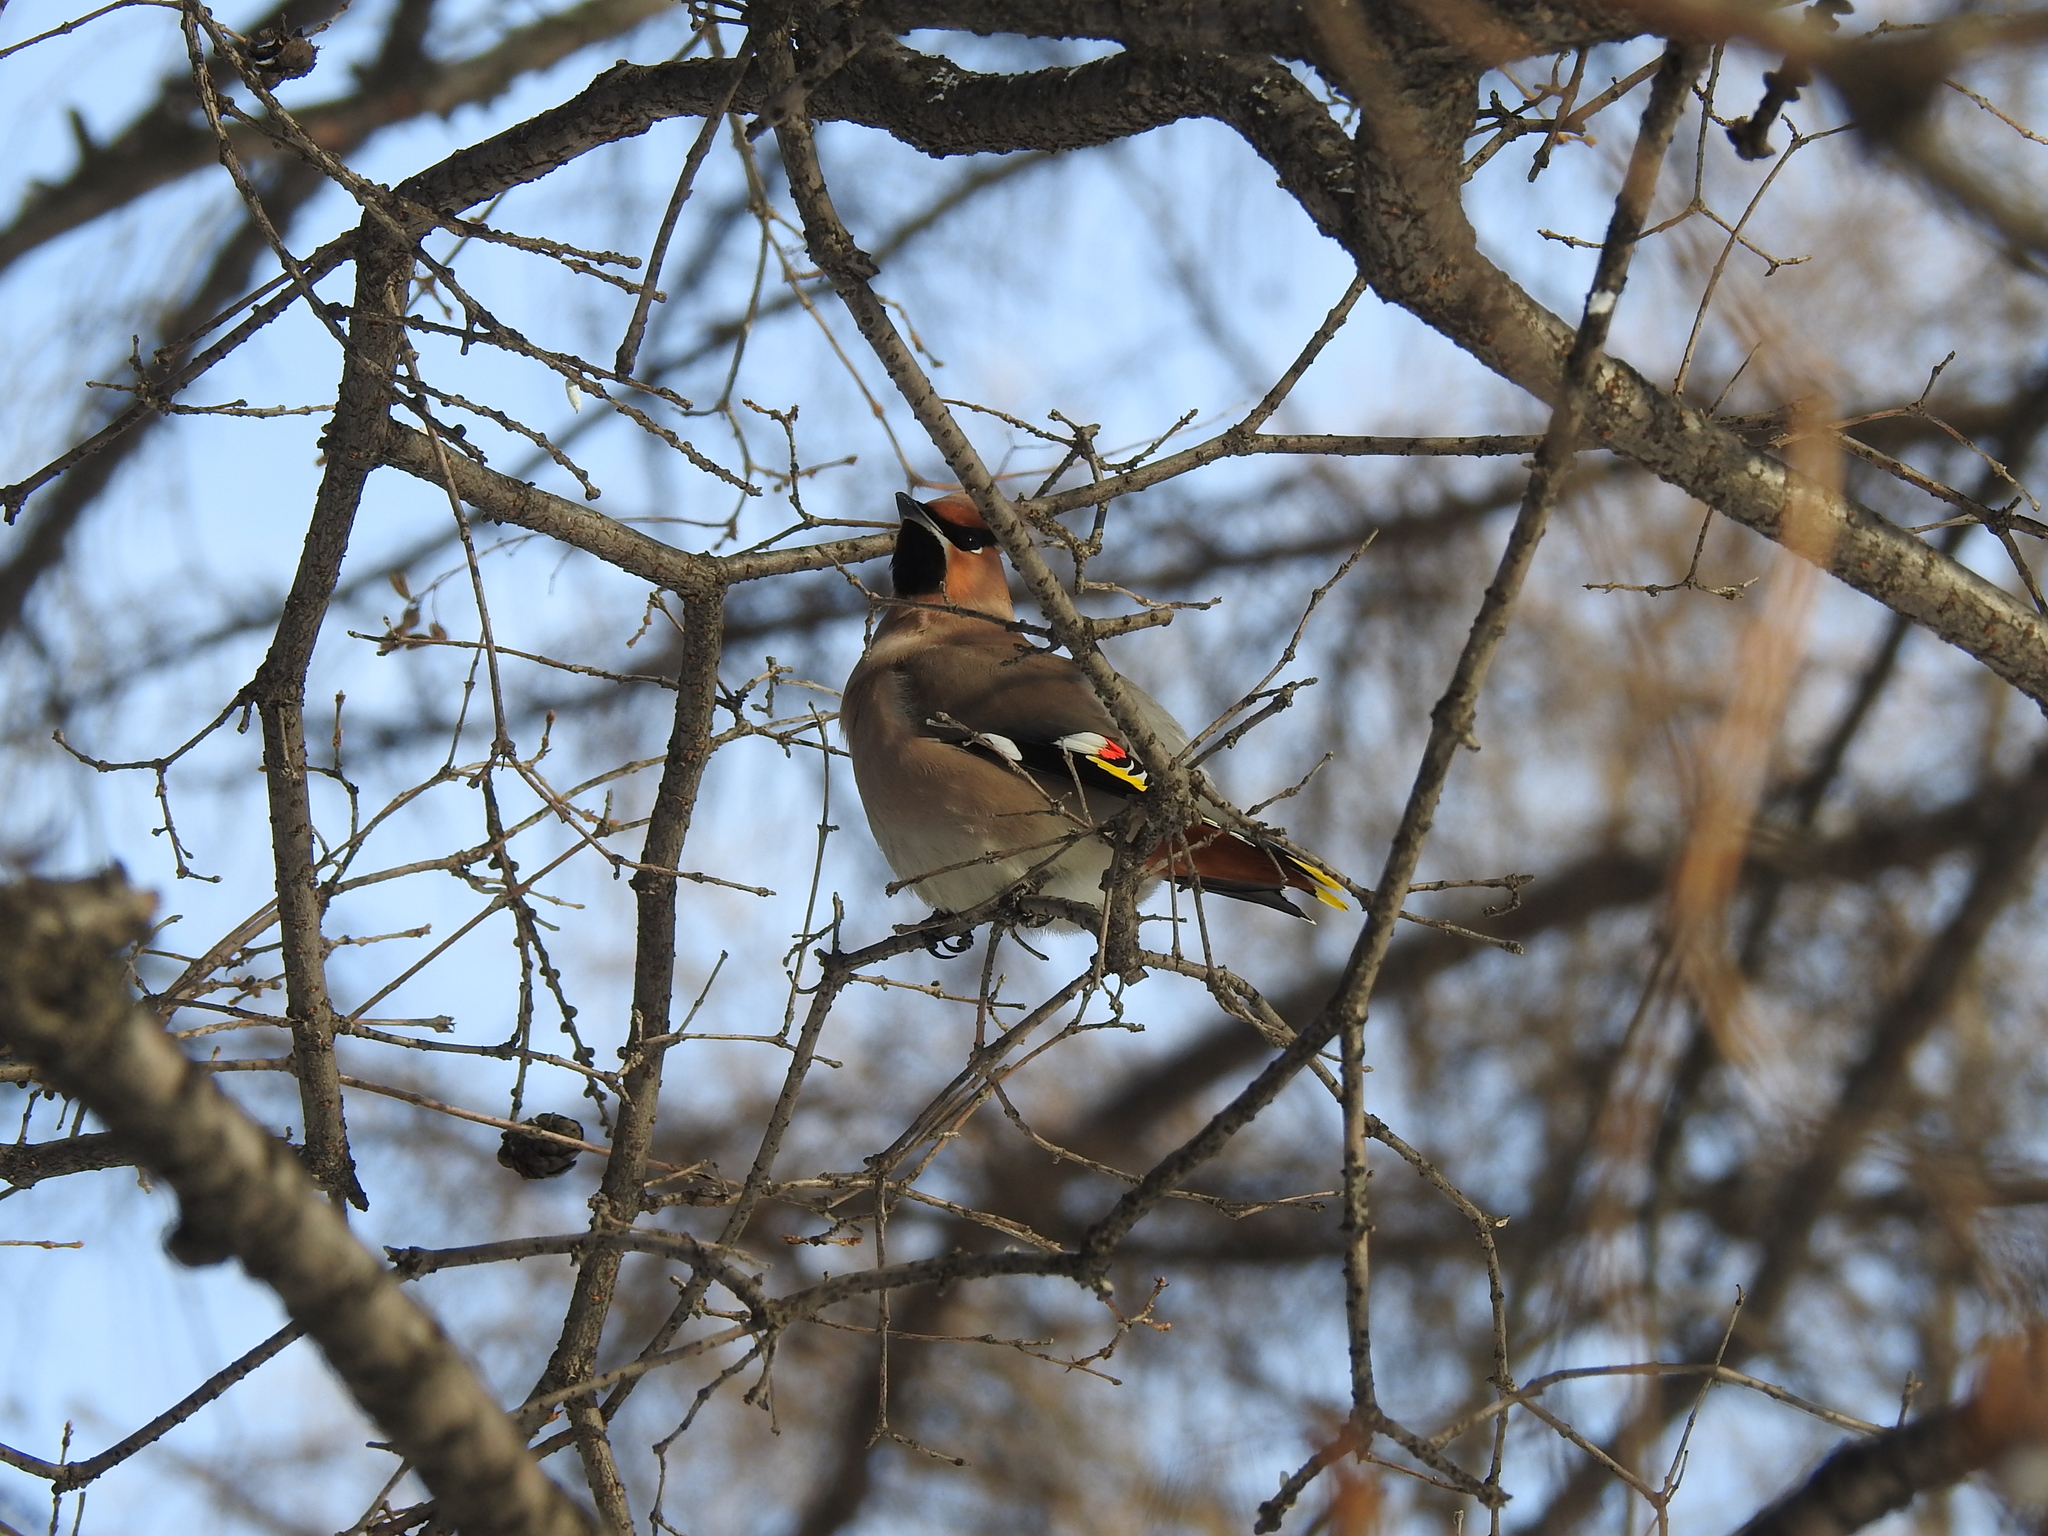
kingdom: Animalia
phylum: Chordata
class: Aves
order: Passeriformes
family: Bombycillidae
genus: Bombycilla
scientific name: Bombycilla garrulus
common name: Bohemian waxwing
